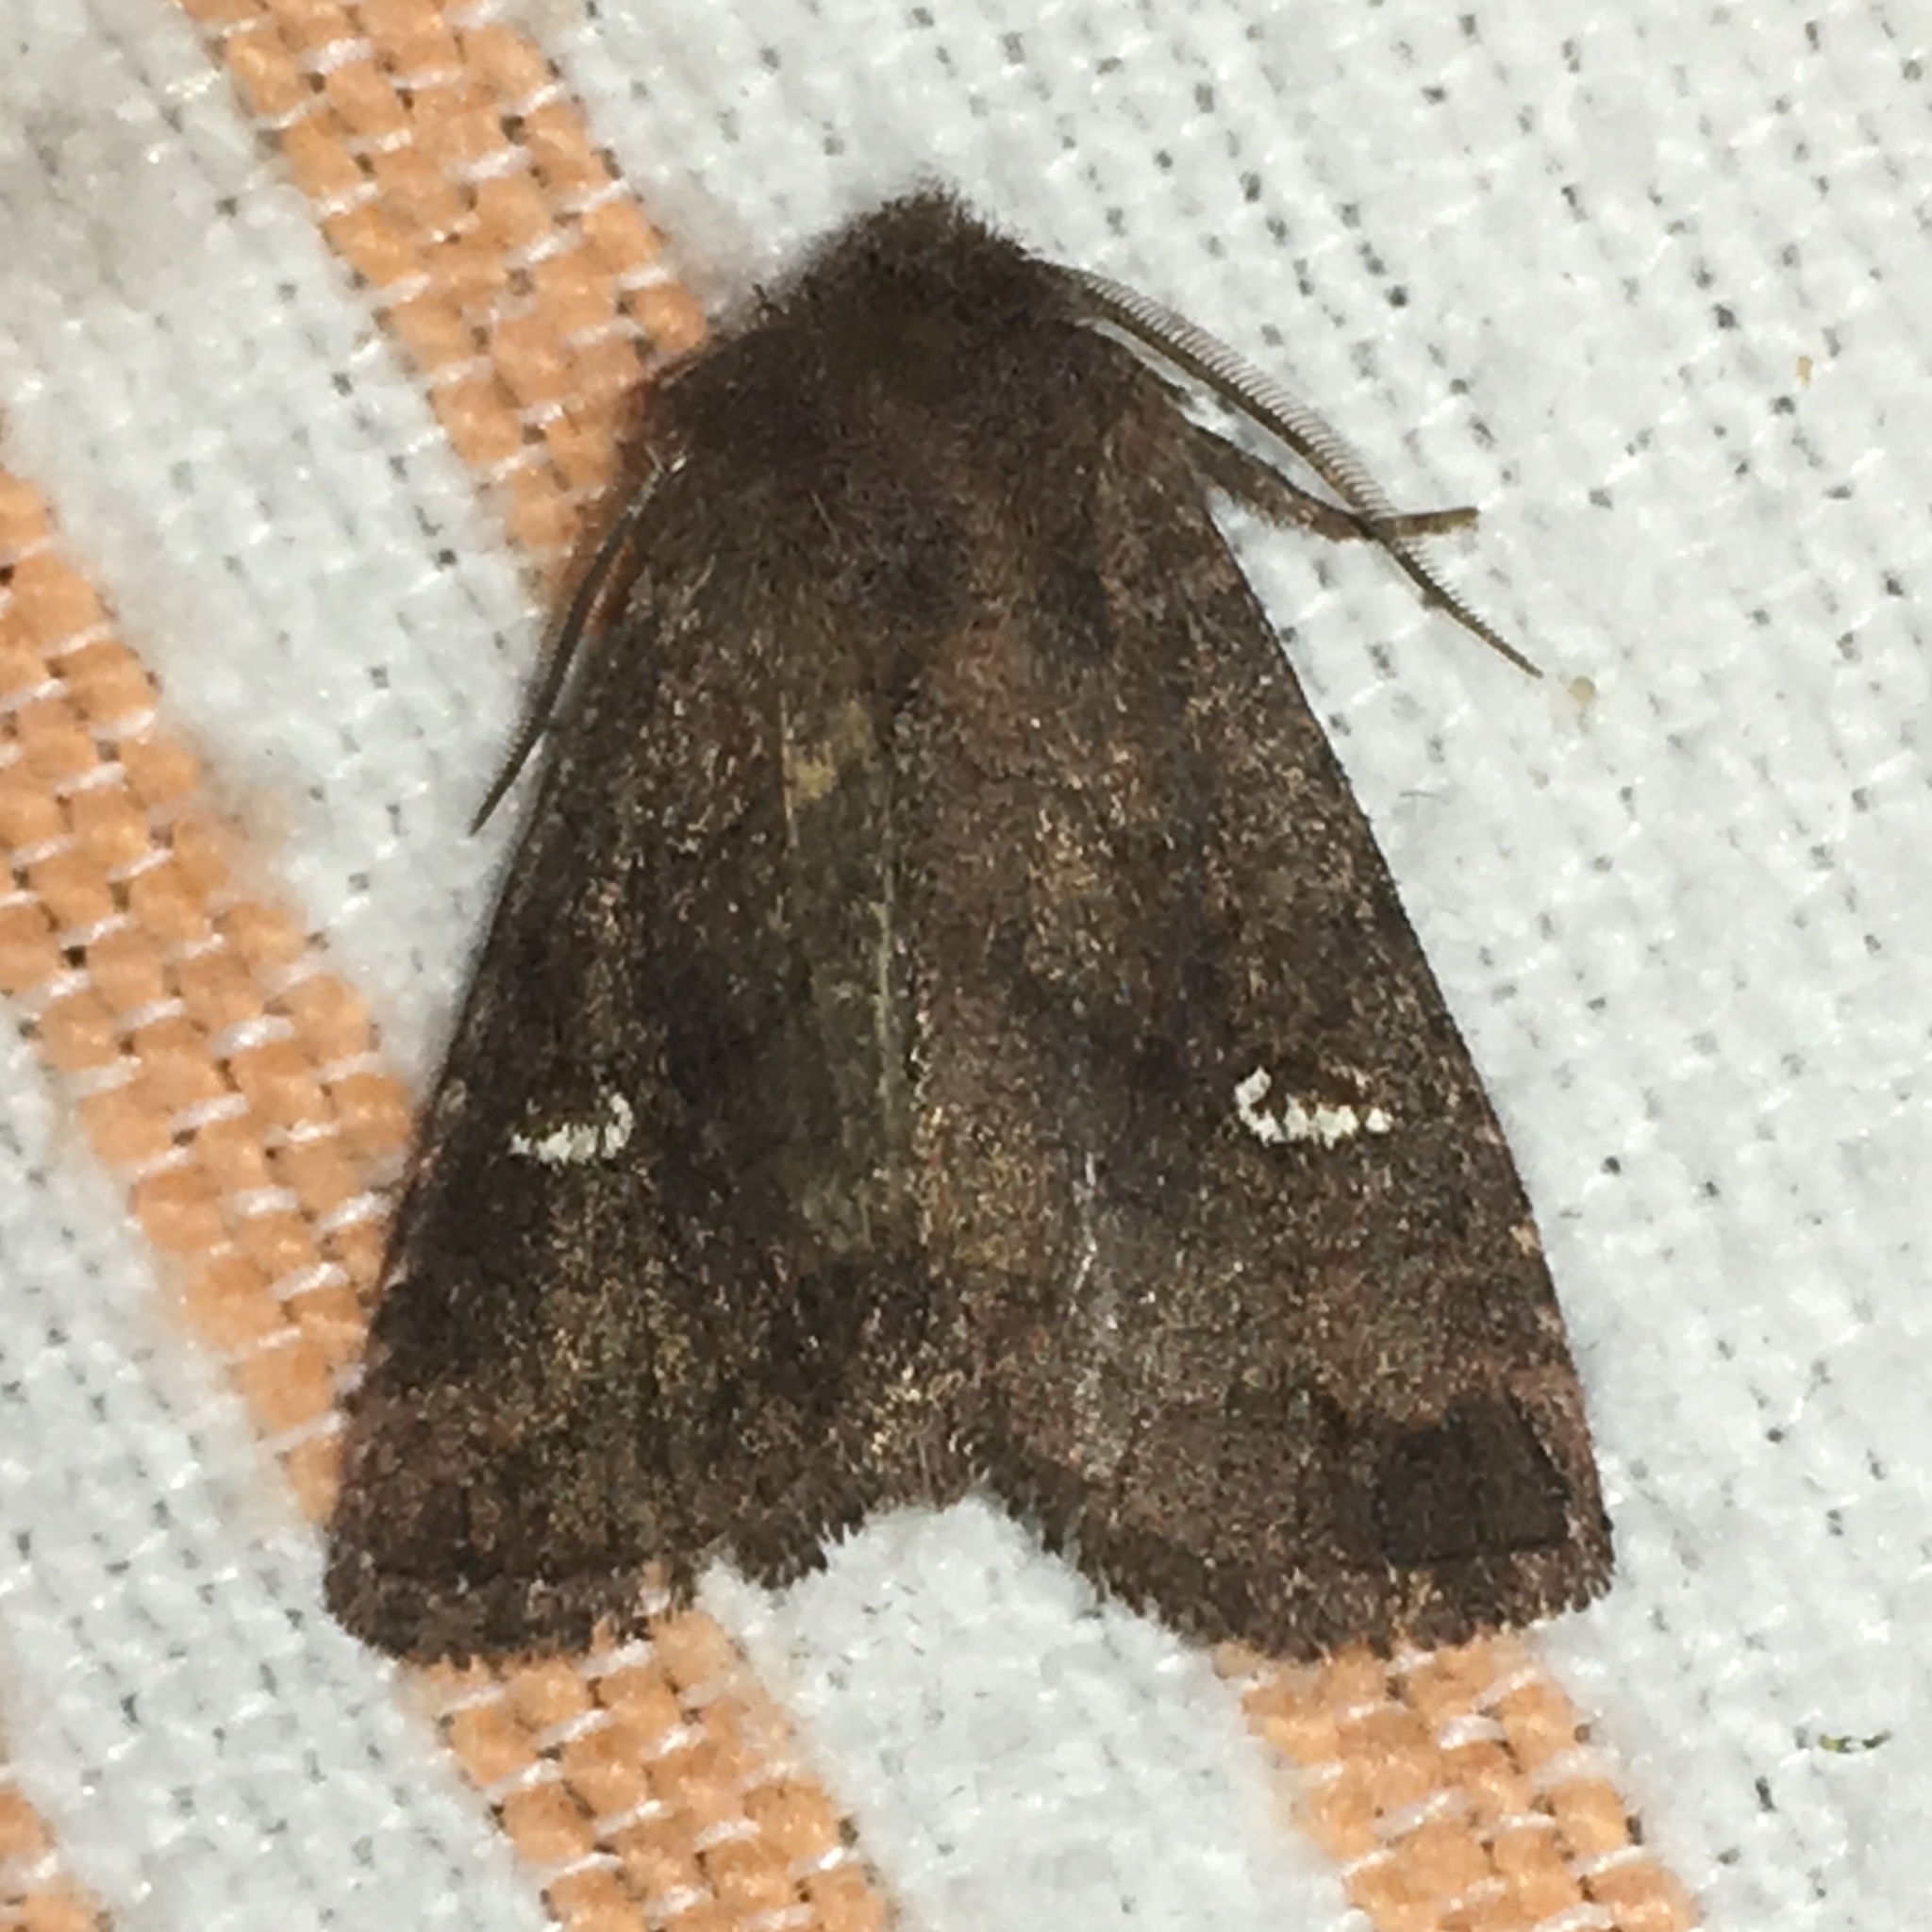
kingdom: Animalia
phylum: Arthropoda
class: Insecta
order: Lepidoptera
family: Noctuidae
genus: Tricholita
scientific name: Tricholita signata
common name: Signate quaker
